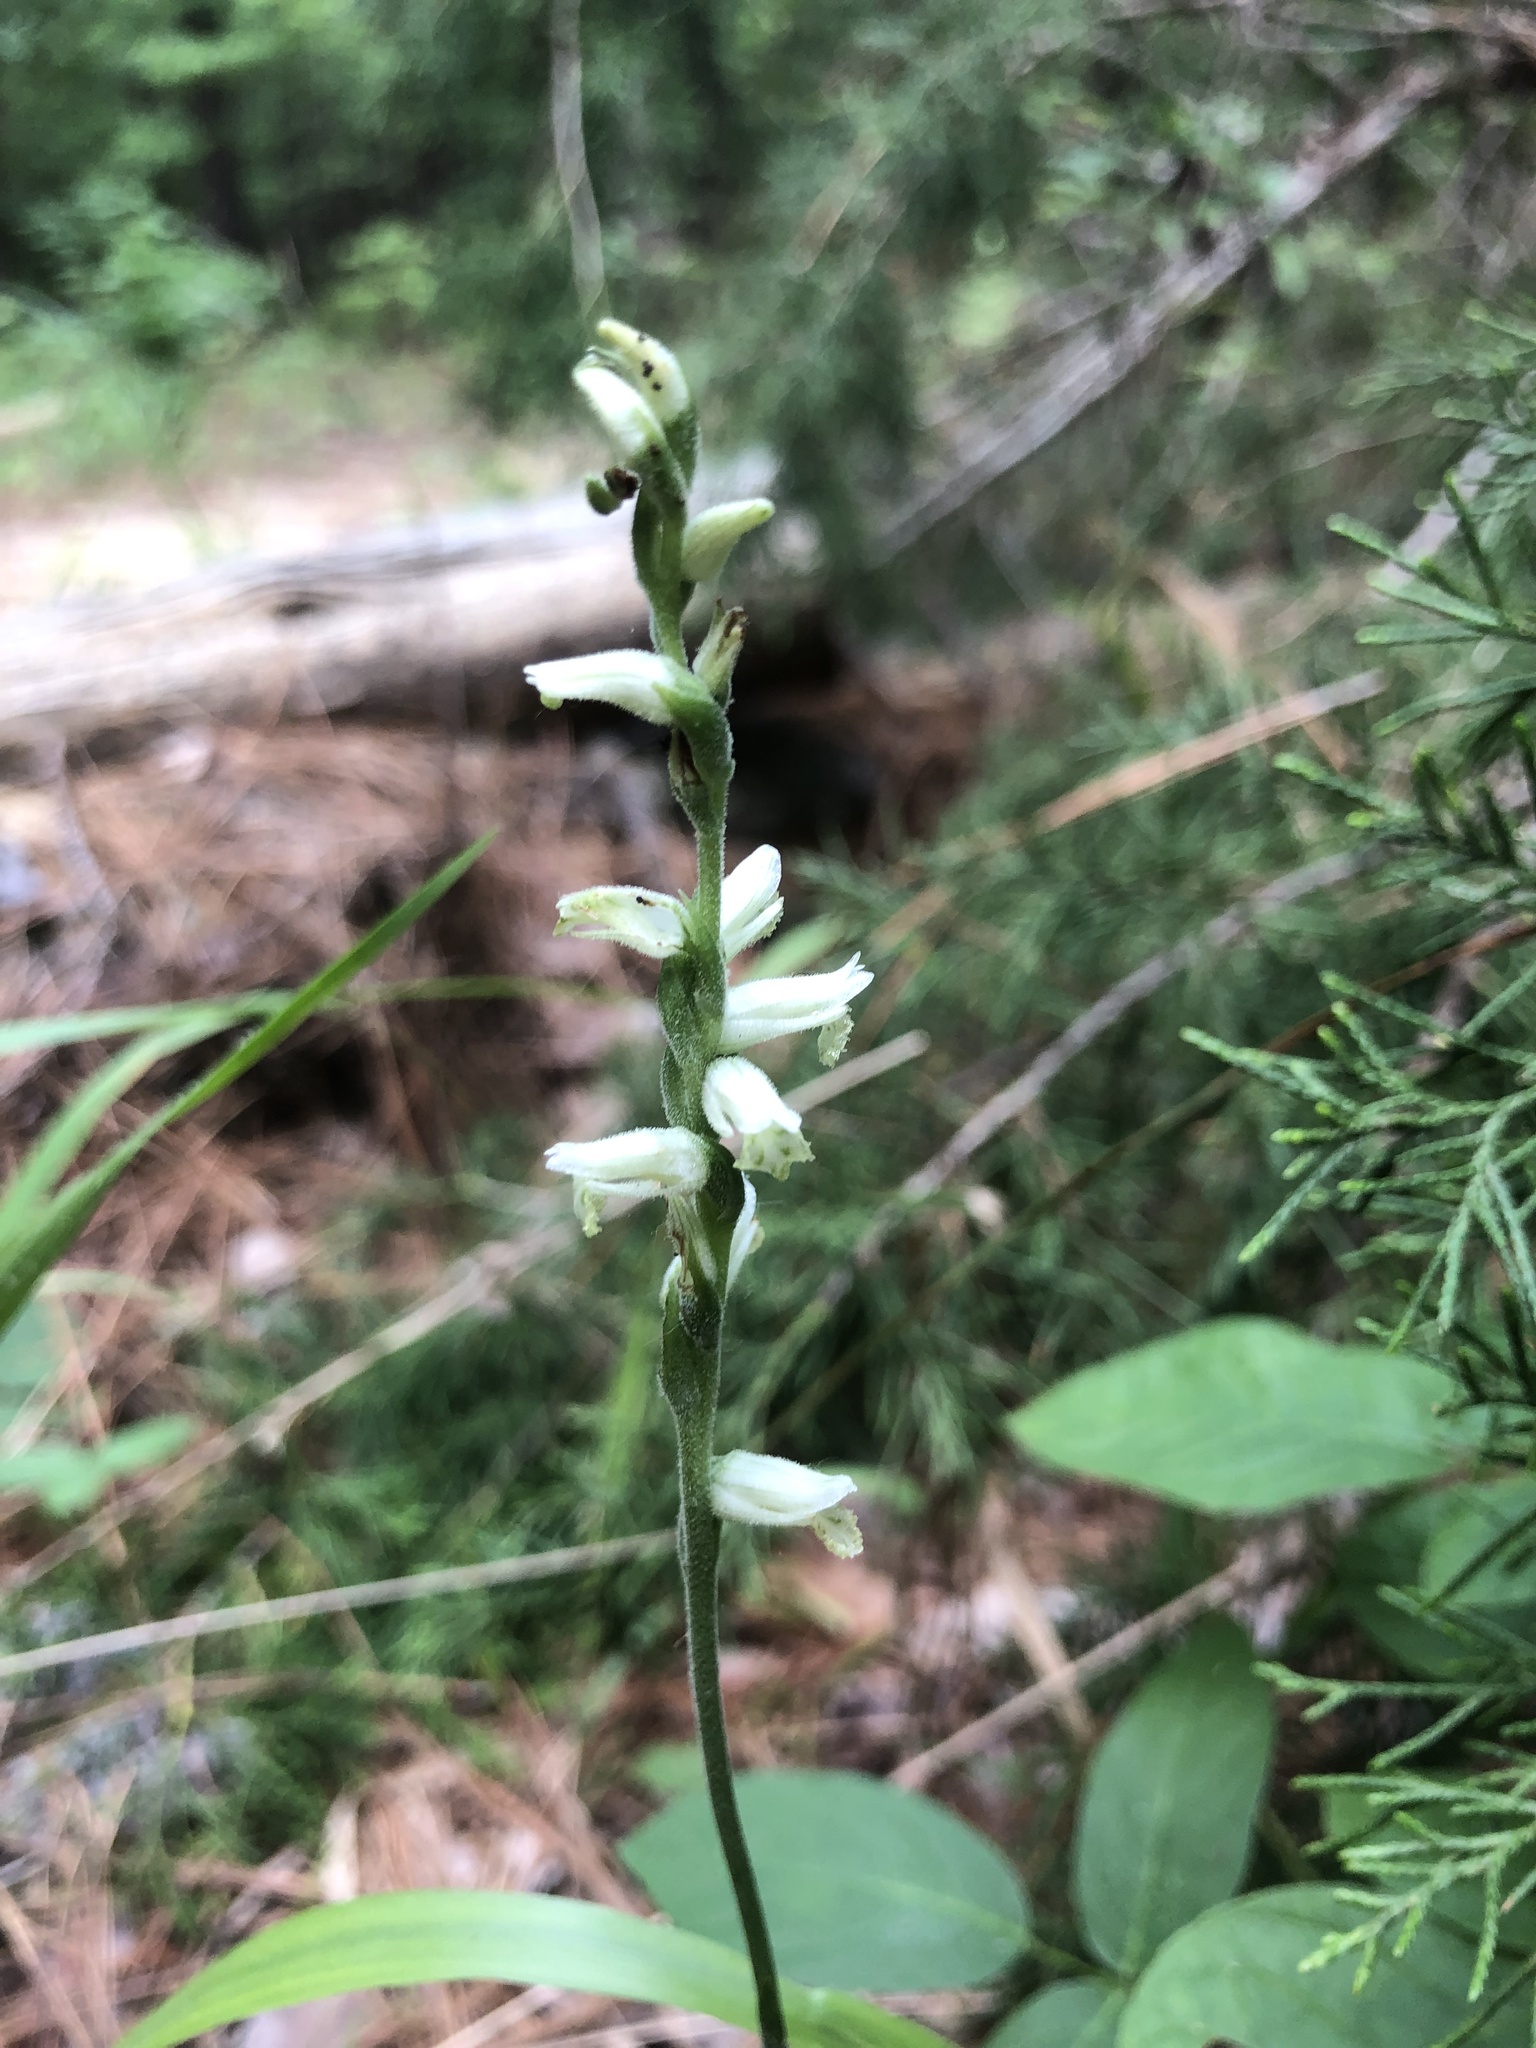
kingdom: Plantae
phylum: Tracheophyta
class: Liliopsida
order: Asparagales
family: Orchidaceae
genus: Spiranthes
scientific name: Spiranthes sylvatica
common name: Woodland lady's tresses
